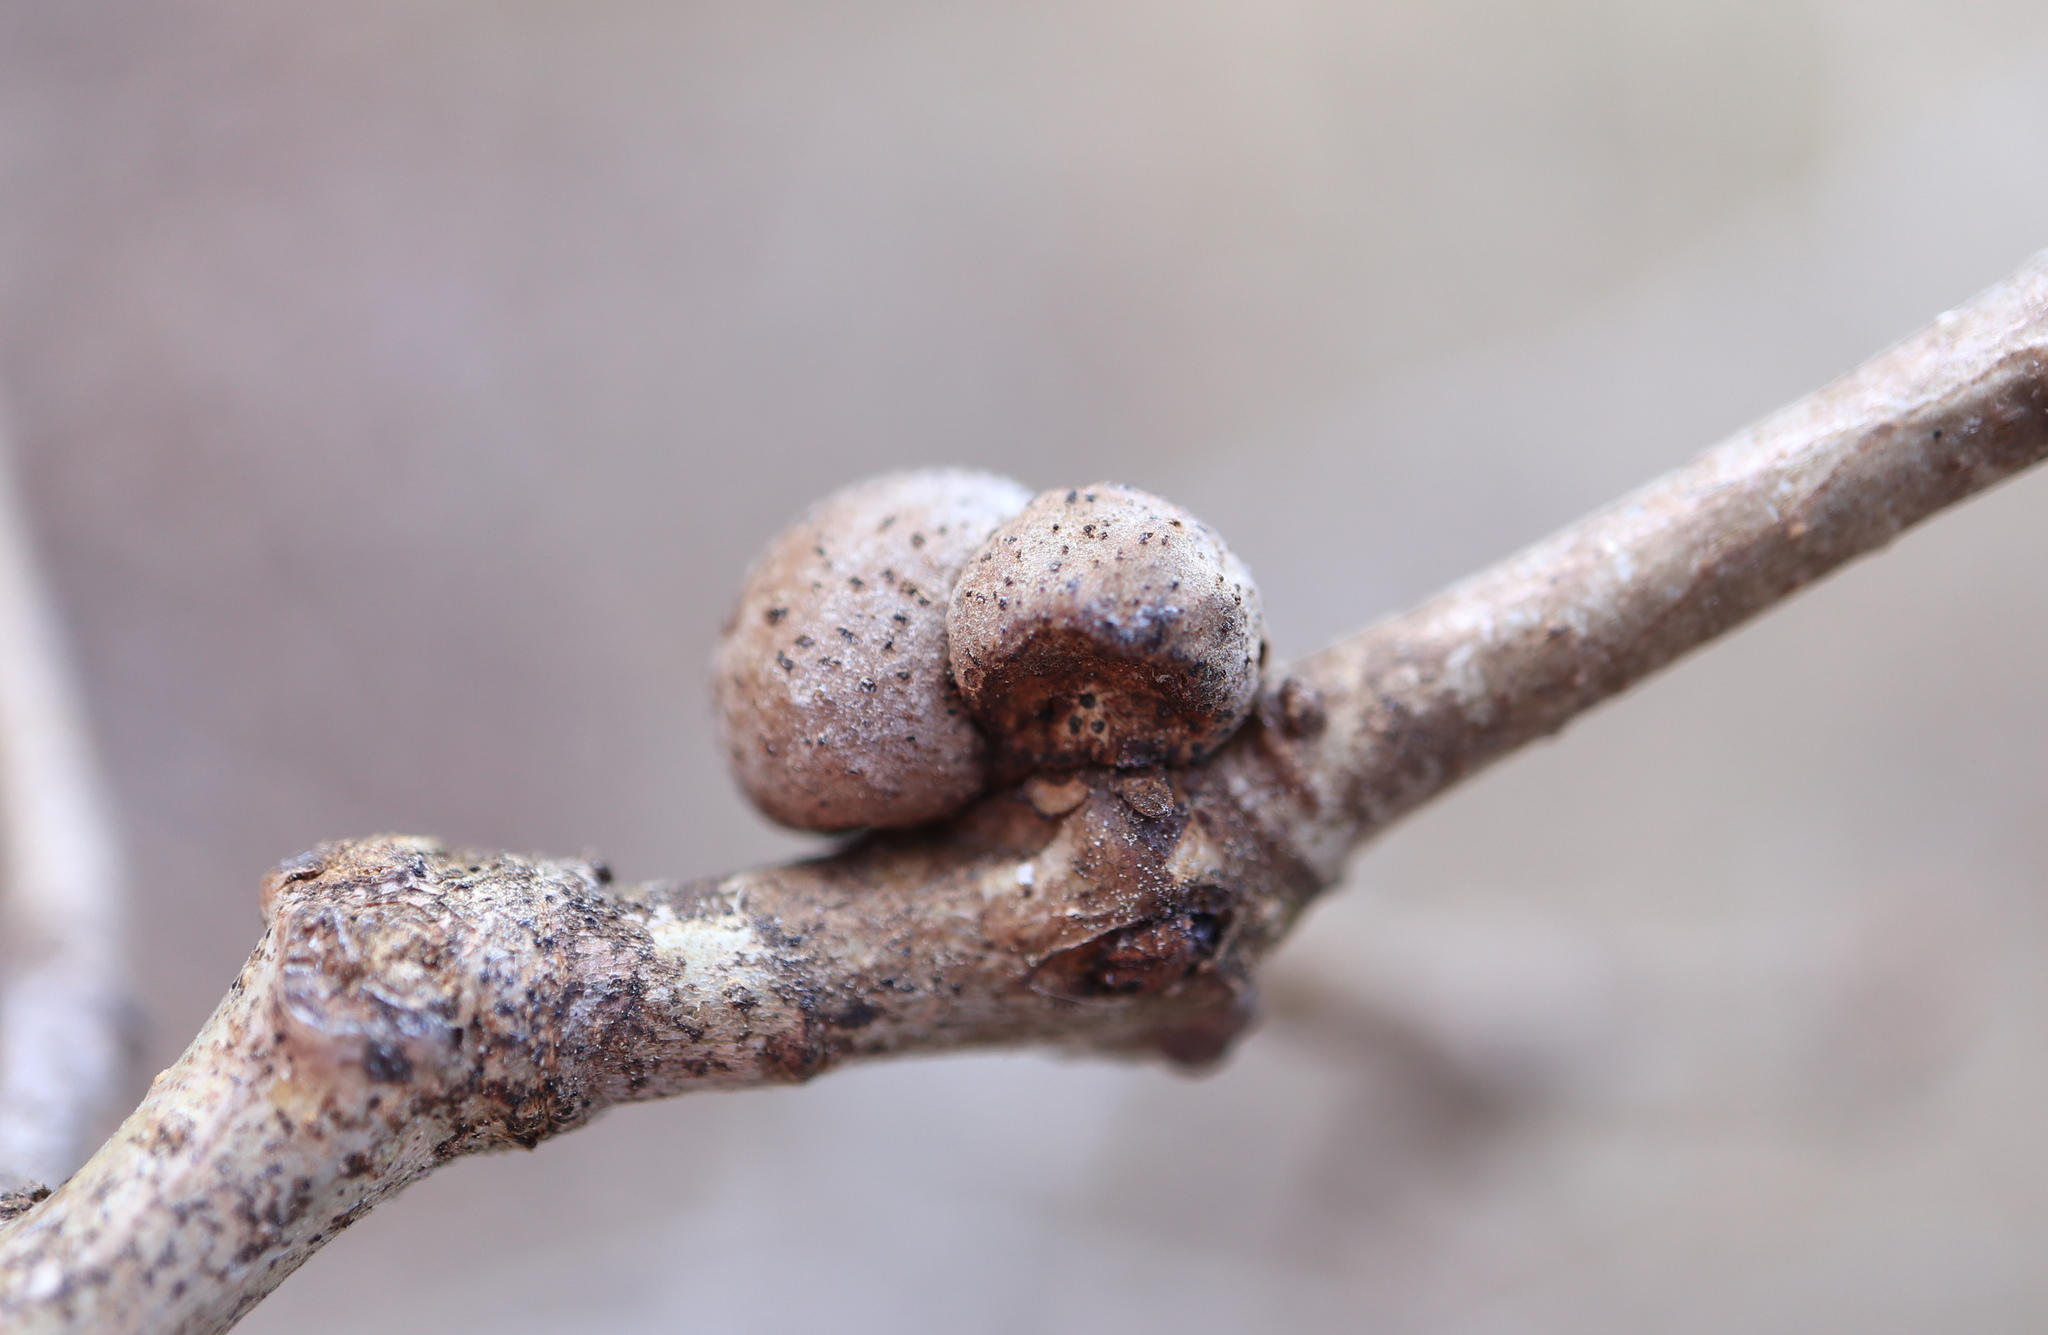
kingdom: Animalia
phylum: Arthropoda
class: Insecta
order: Hymenoptera
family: Cynipidae
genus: Disholcaspis
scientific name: Disholcaspis quercusglobulus
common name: Round bullet gall wasp
